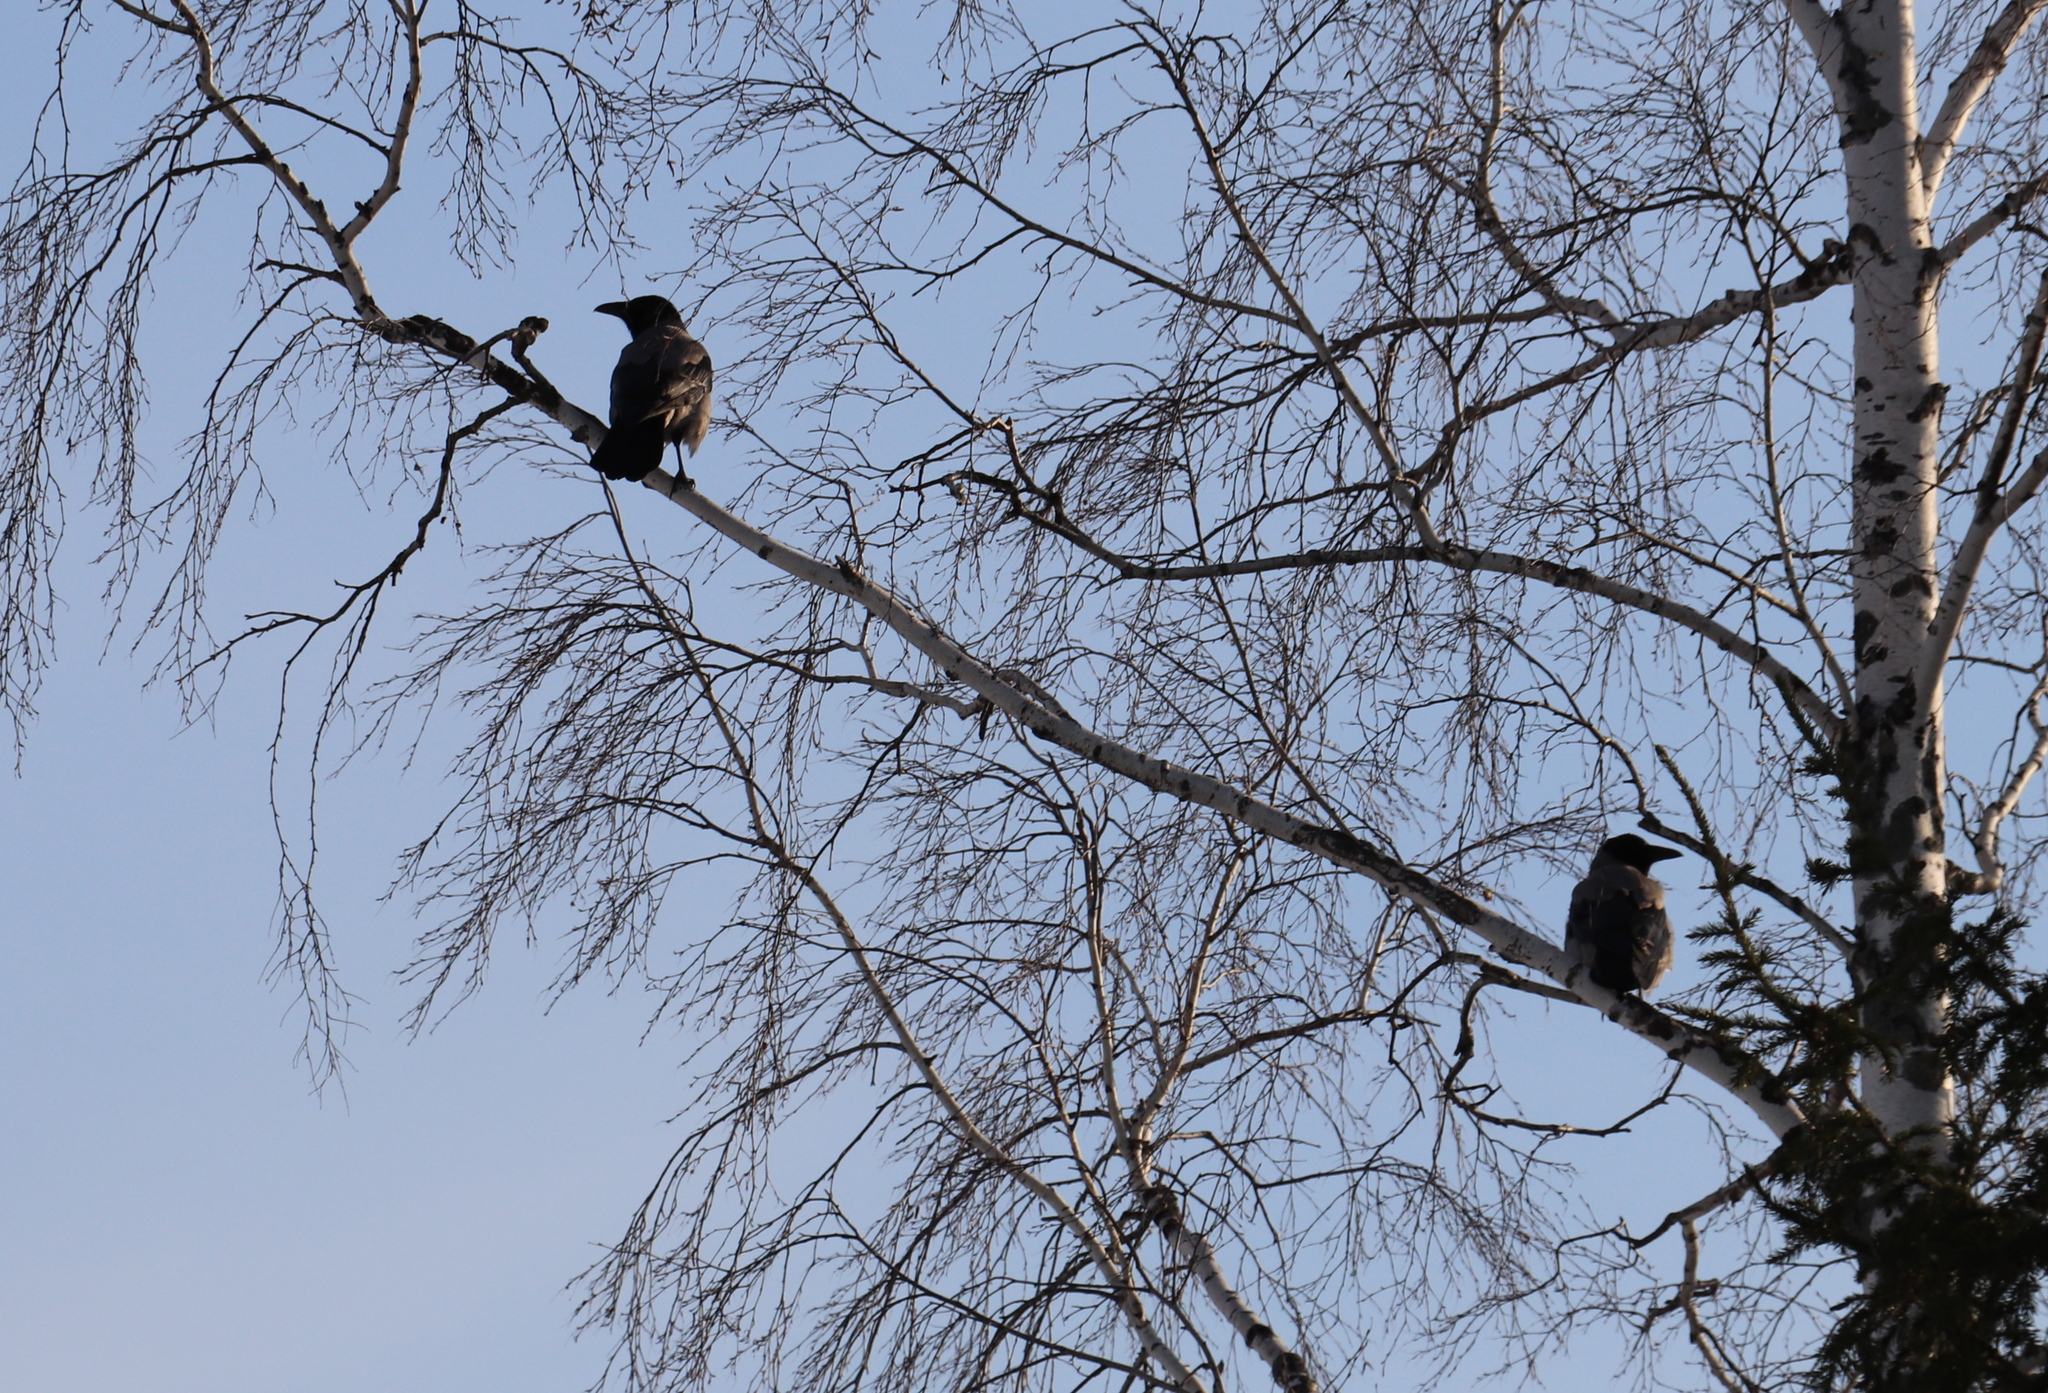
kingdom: Animalia
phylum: Chordata
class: Aves
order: Passeriformes
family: Corvidae
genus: Corvus
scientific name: Corvus cornix
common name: Hooded crow
